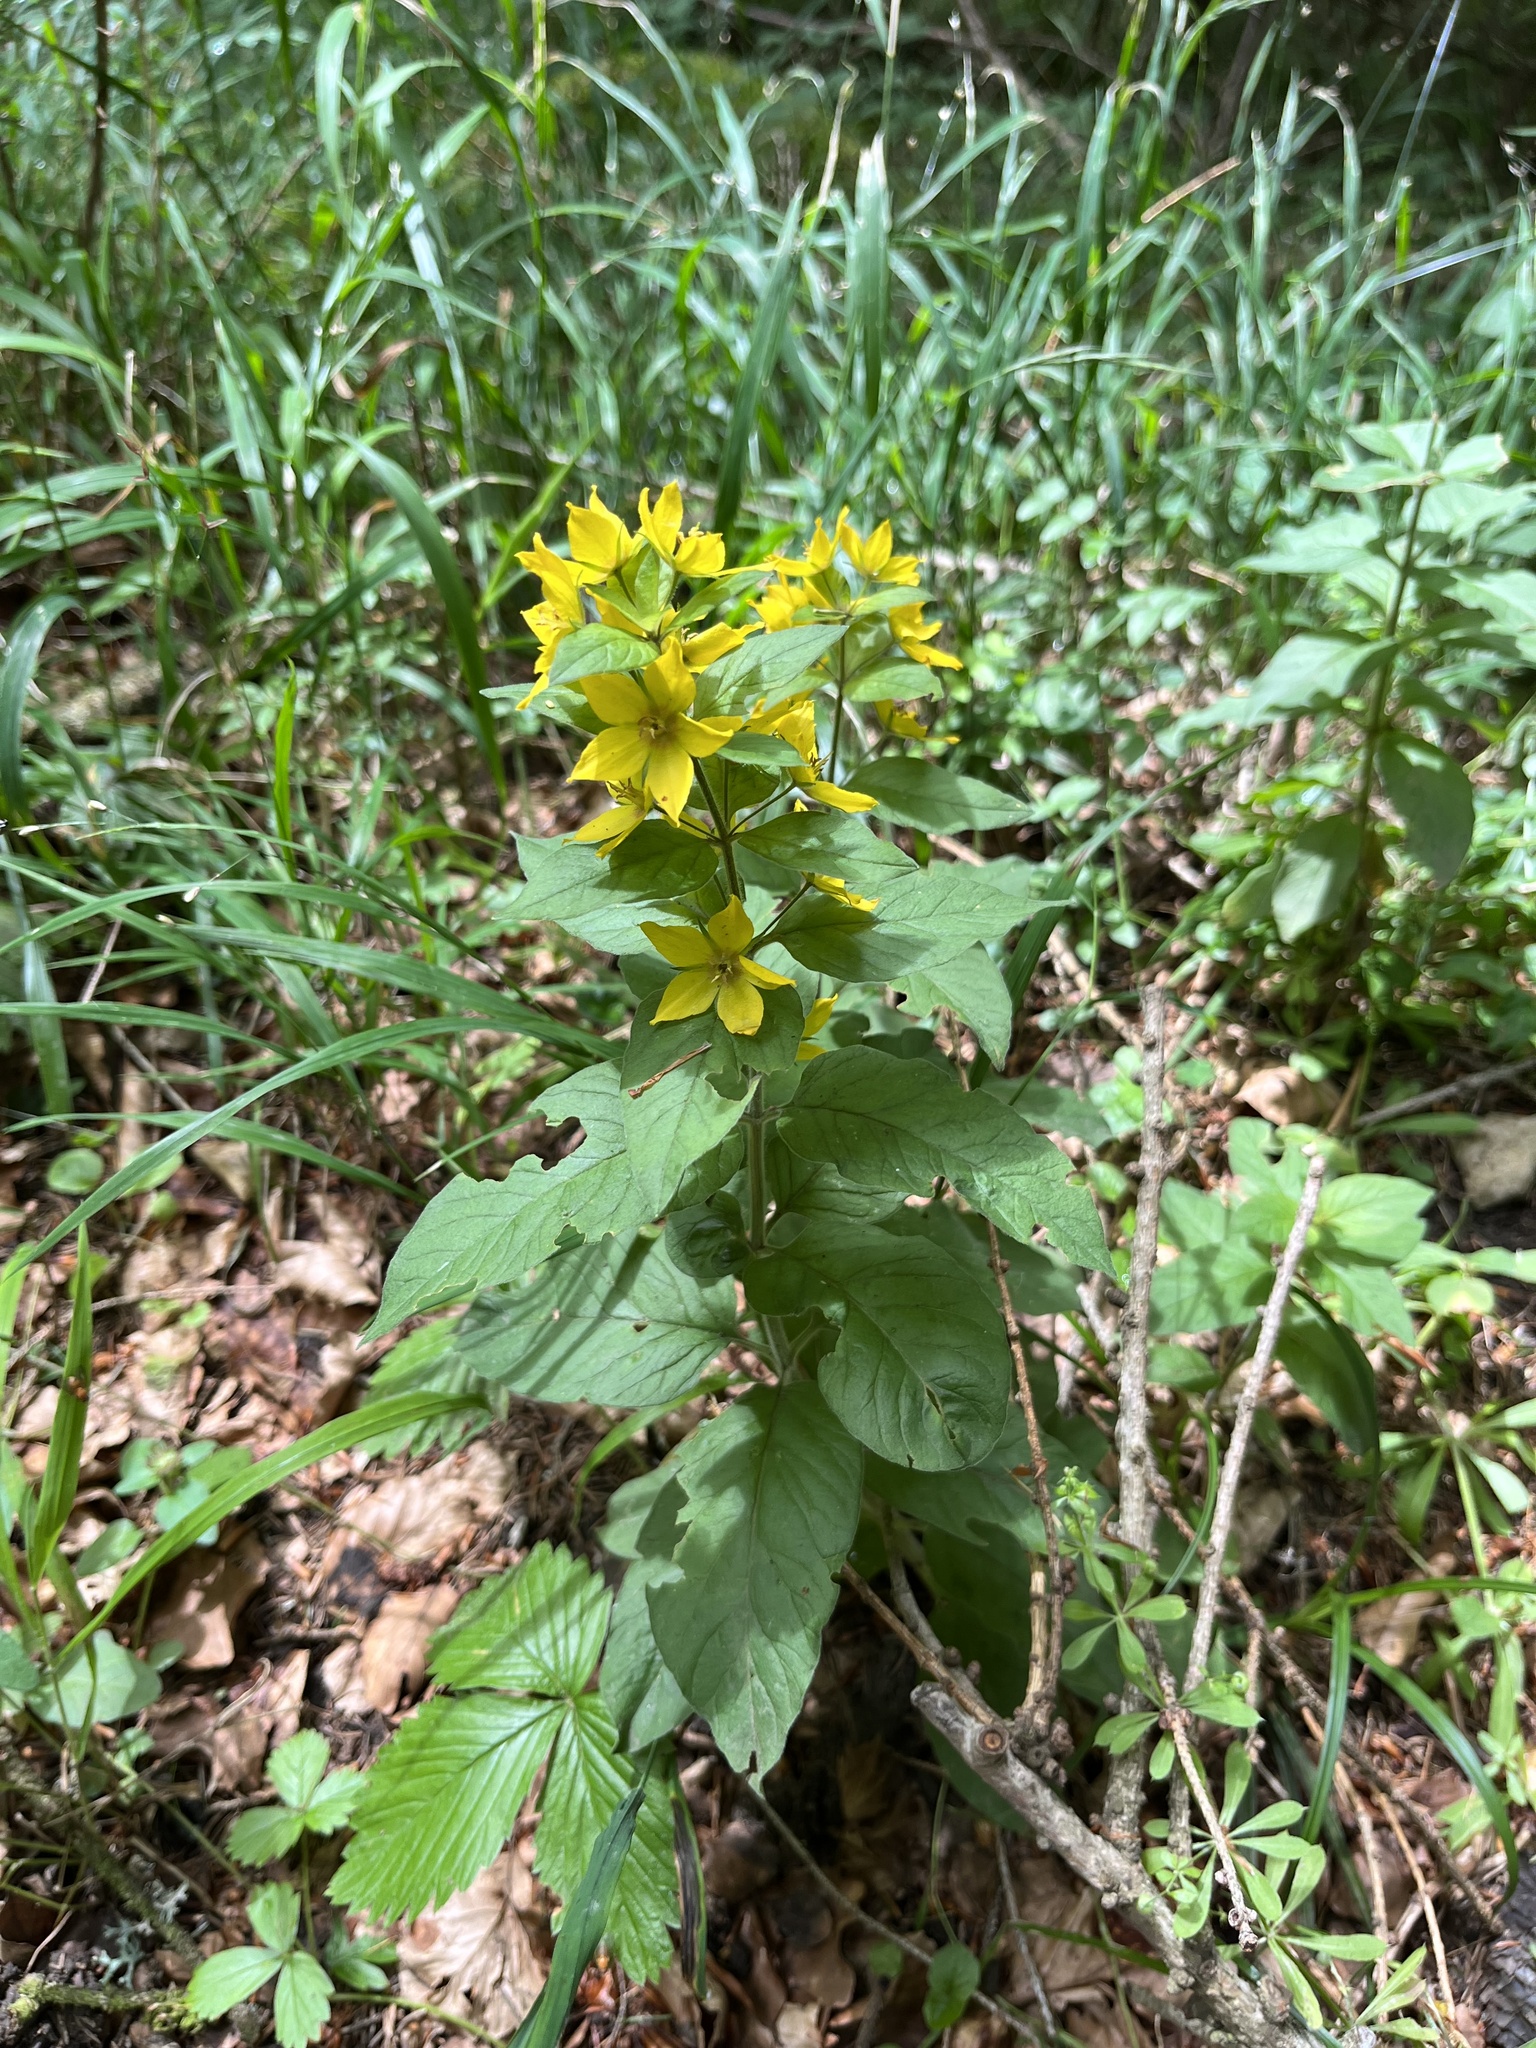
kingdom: Plantae
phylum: Tracheophyta
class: Magnoliopsida
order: Ericales
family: Primulaceae
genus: Lysimachia
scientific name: Lysimachia punctata
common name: Dotted loosestrife
